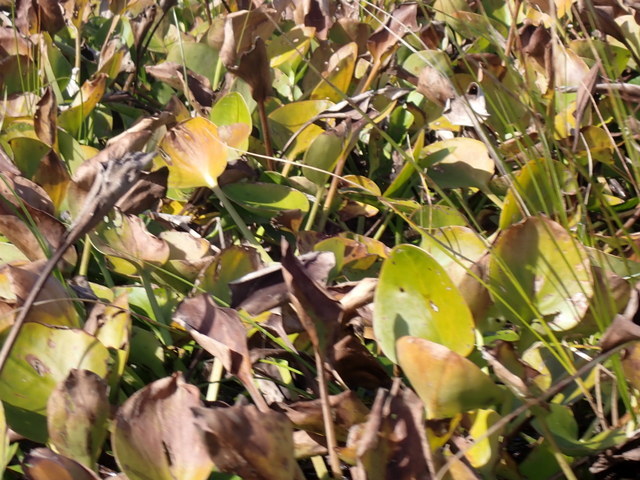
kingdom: Plantae
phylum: Tracheophyta
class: Liliopsida
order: Alismatales
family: Hydrocharitaceae
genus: Hydrocharis
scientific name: Hydrocharis spongia
